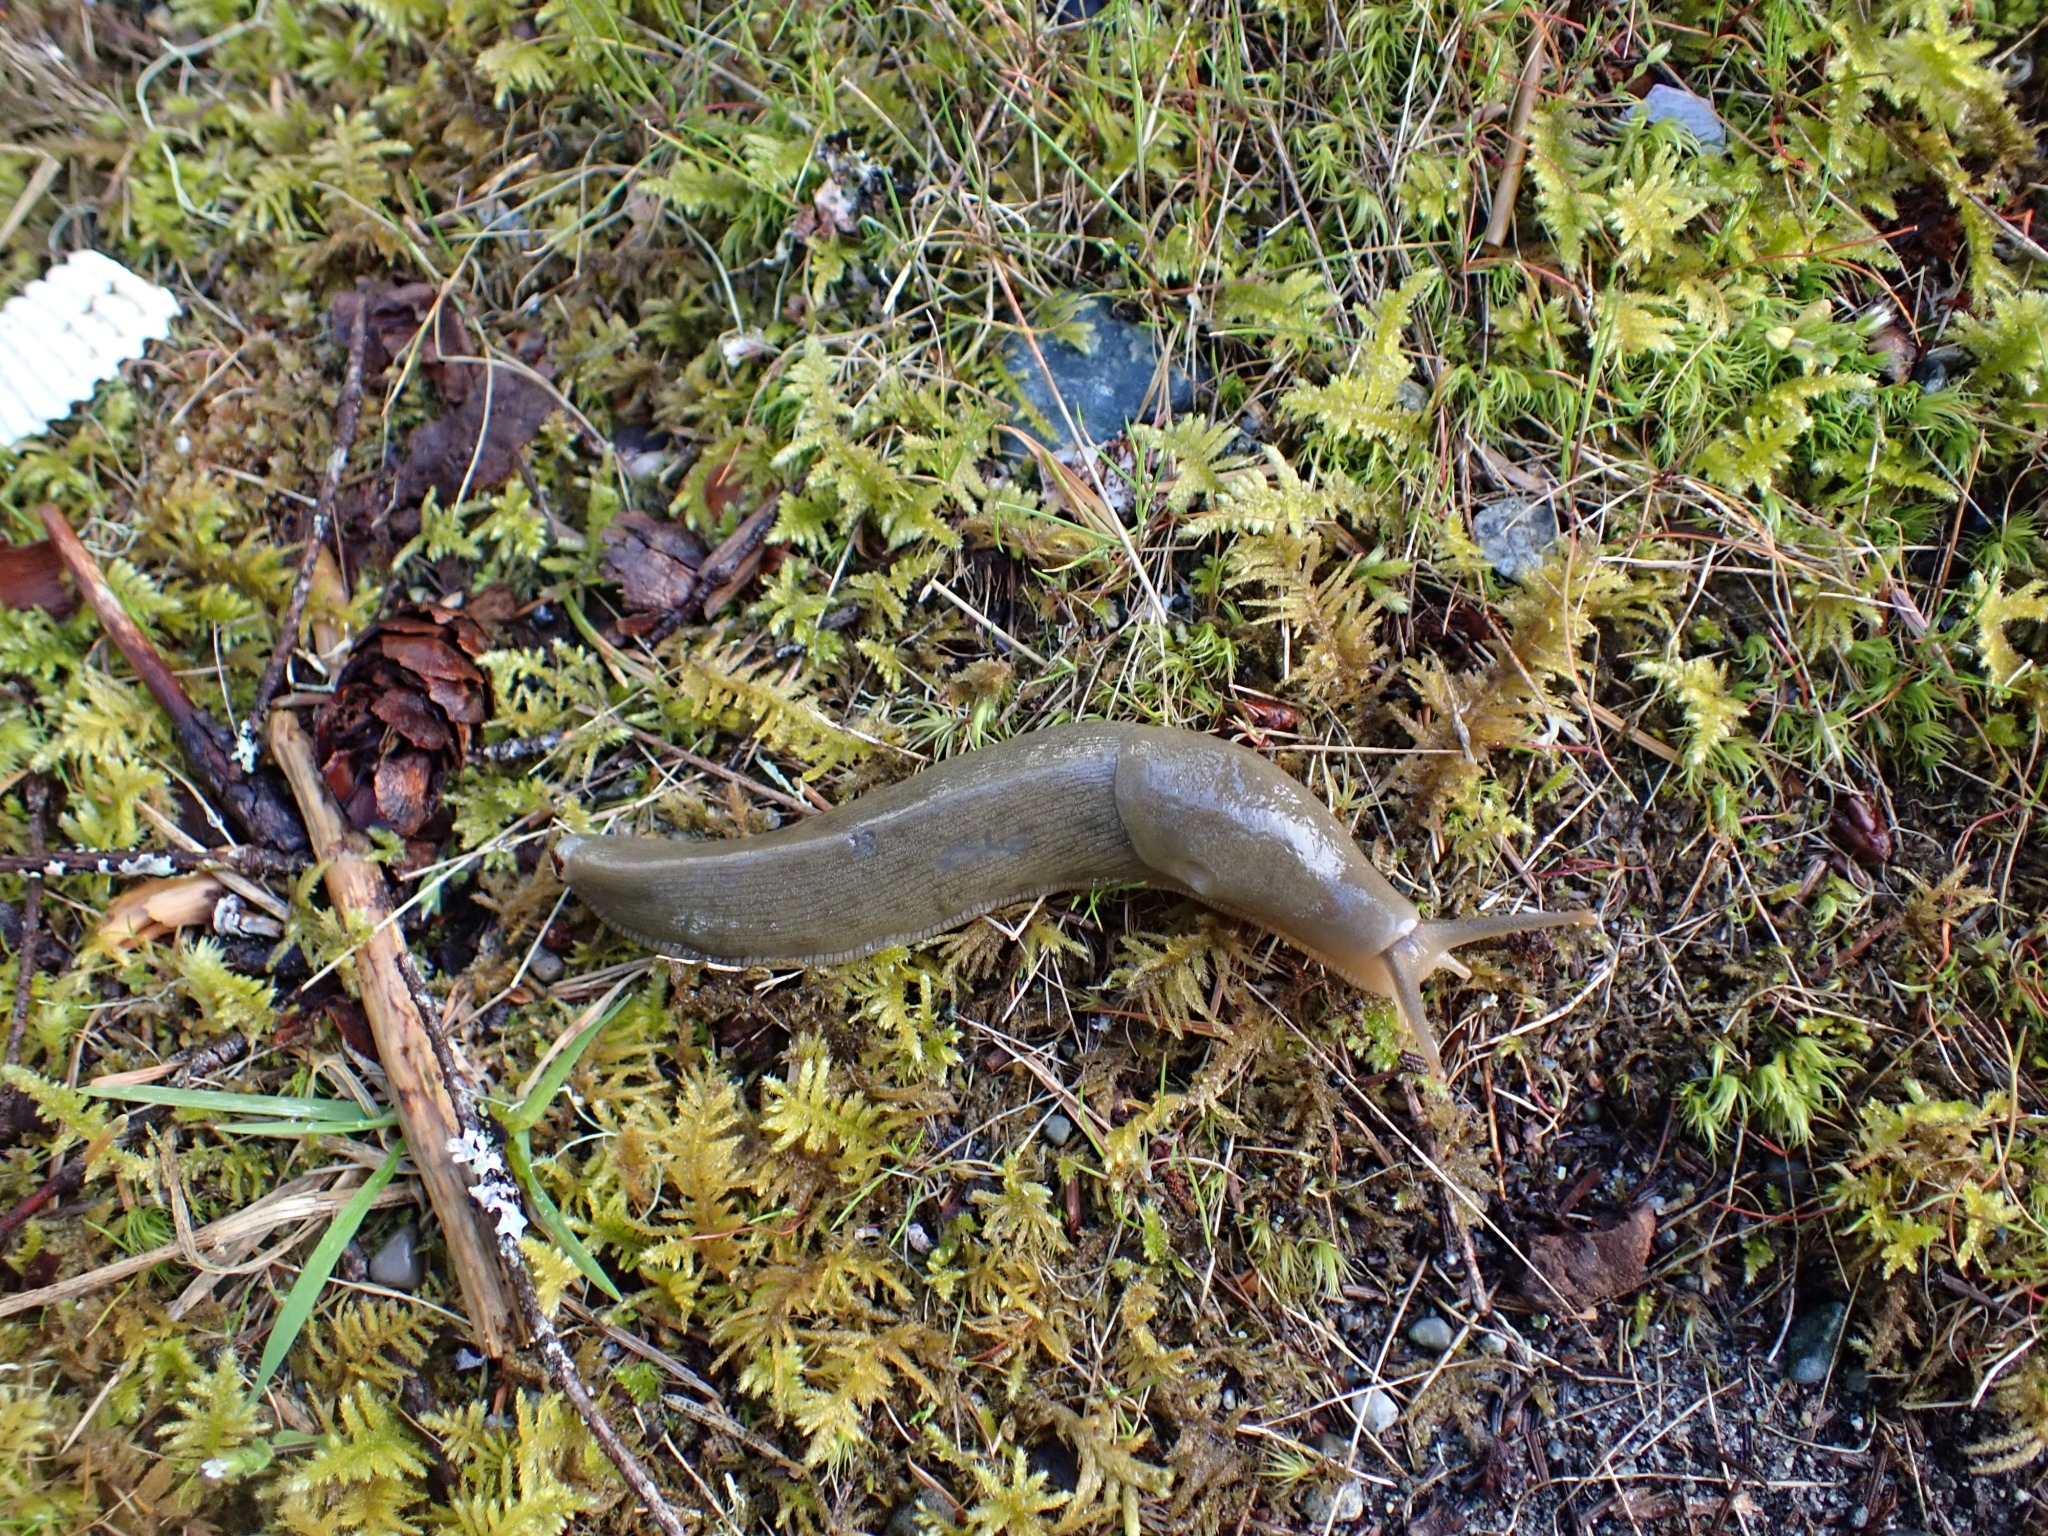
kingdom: Animalia
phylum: Mollusca
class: Gastropoda
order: Stylommatophora
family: Ariolimacidae
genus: Ariolimax
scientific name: Ariolimax columbianus
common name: Pacific banana slug
